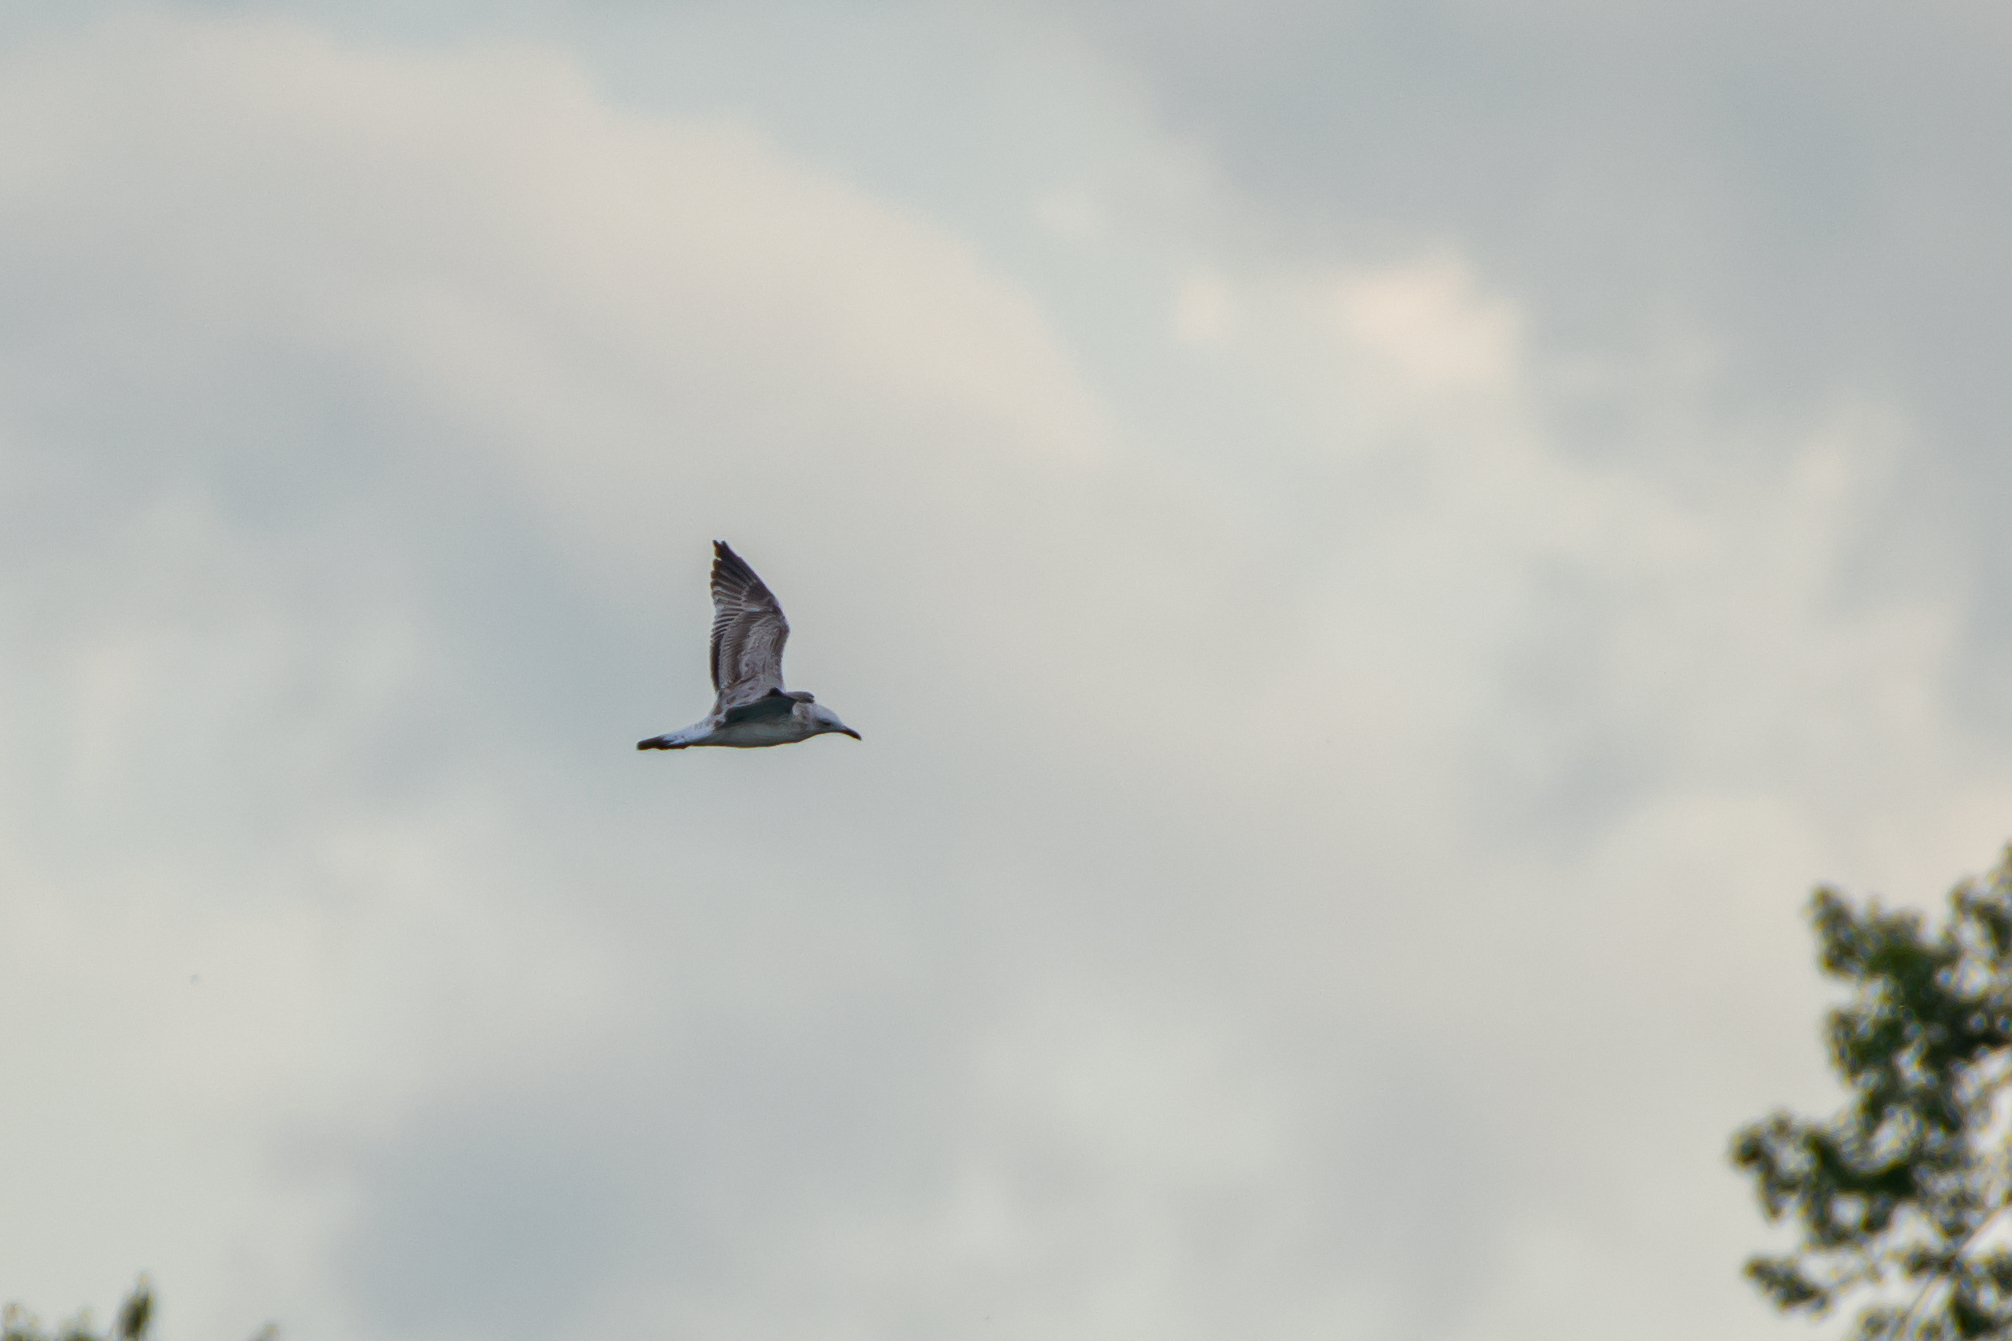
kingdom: Animalia
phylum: Chordata
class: Aves
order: Charadriiformes
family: Laridae
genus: Larus
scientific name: Larus cachinnans
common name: Caspian gull
